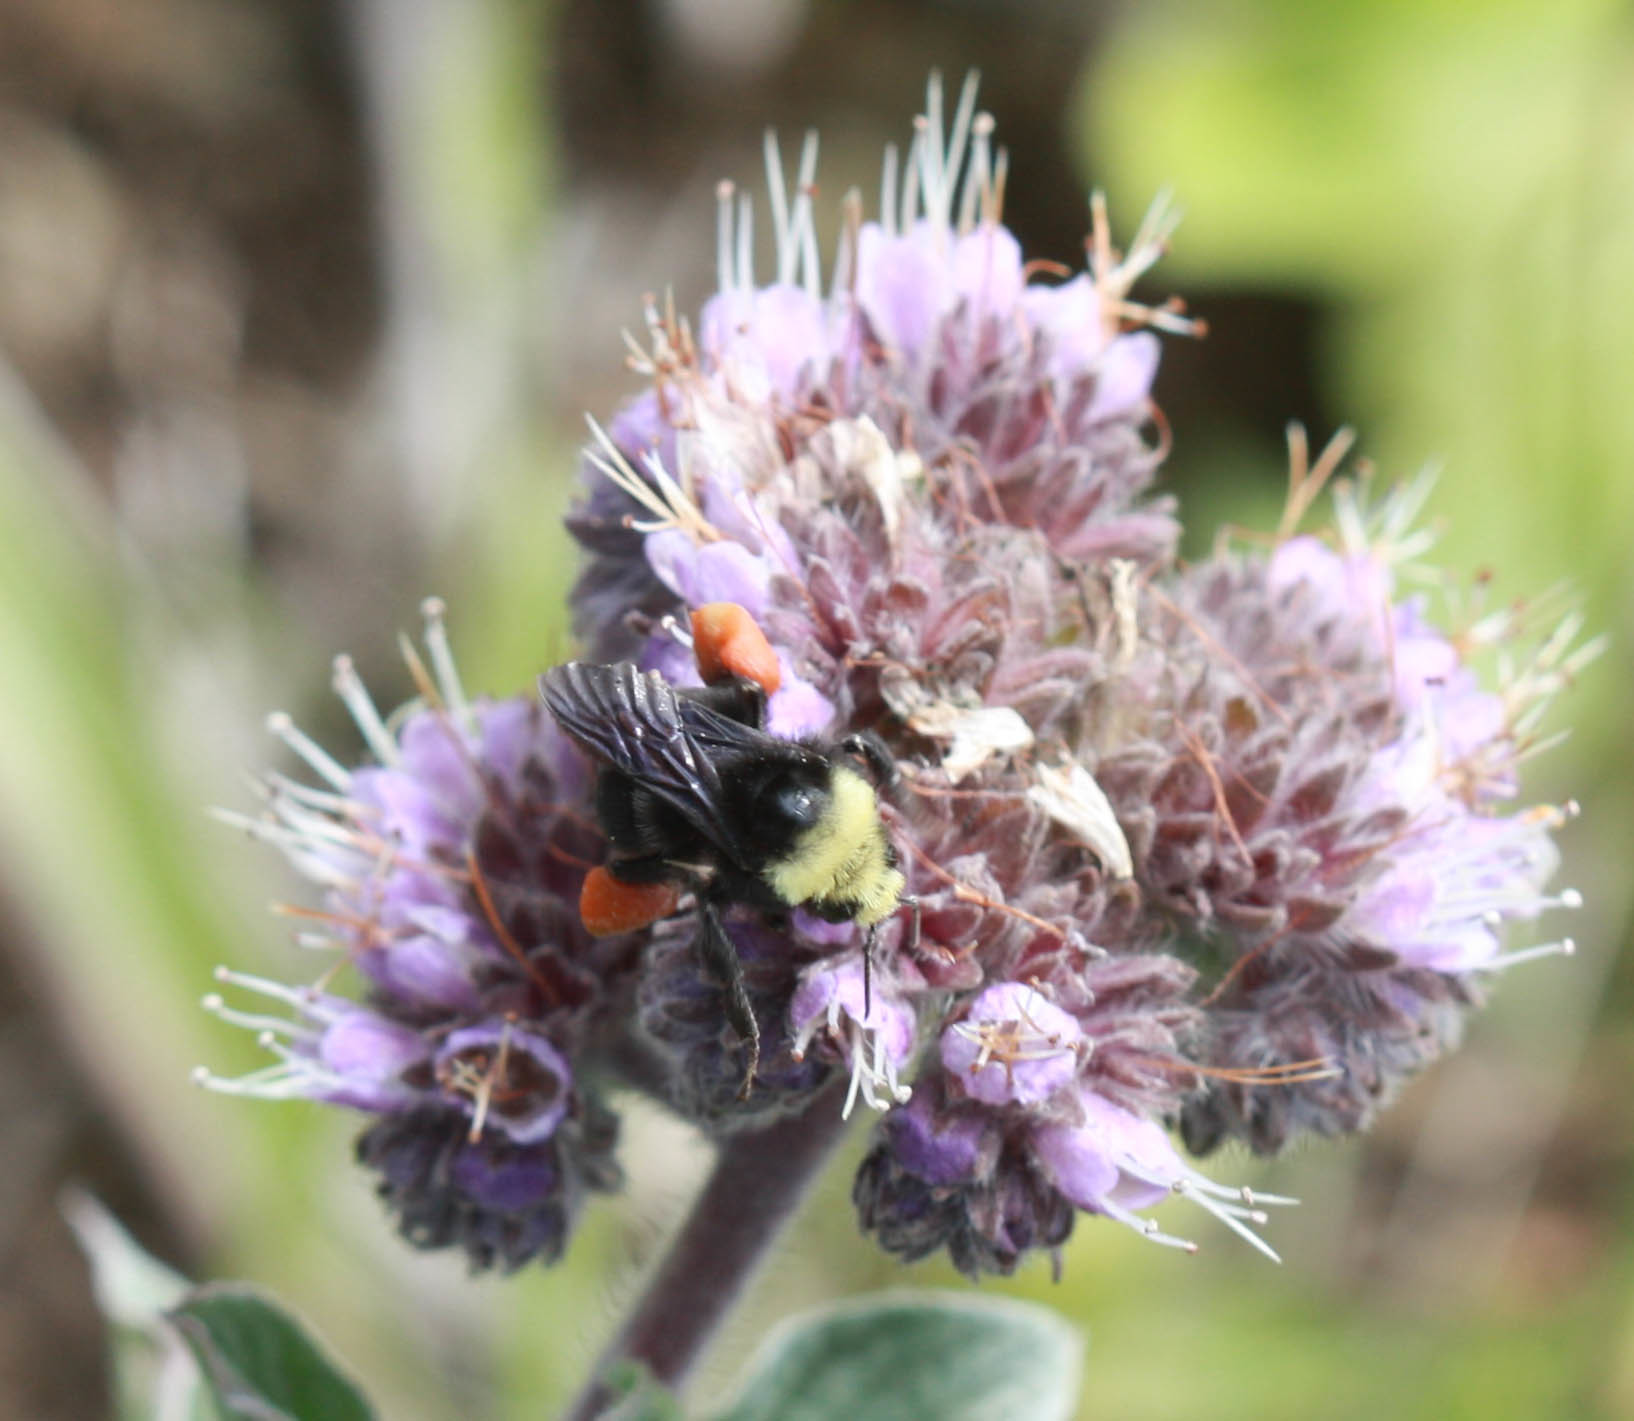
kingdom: Plantae
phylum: Tracheophyta
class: Magnoliopsida
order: Boraginales
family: Hydrophyllaceae
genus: Phacelia
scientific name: Phacelia californica
